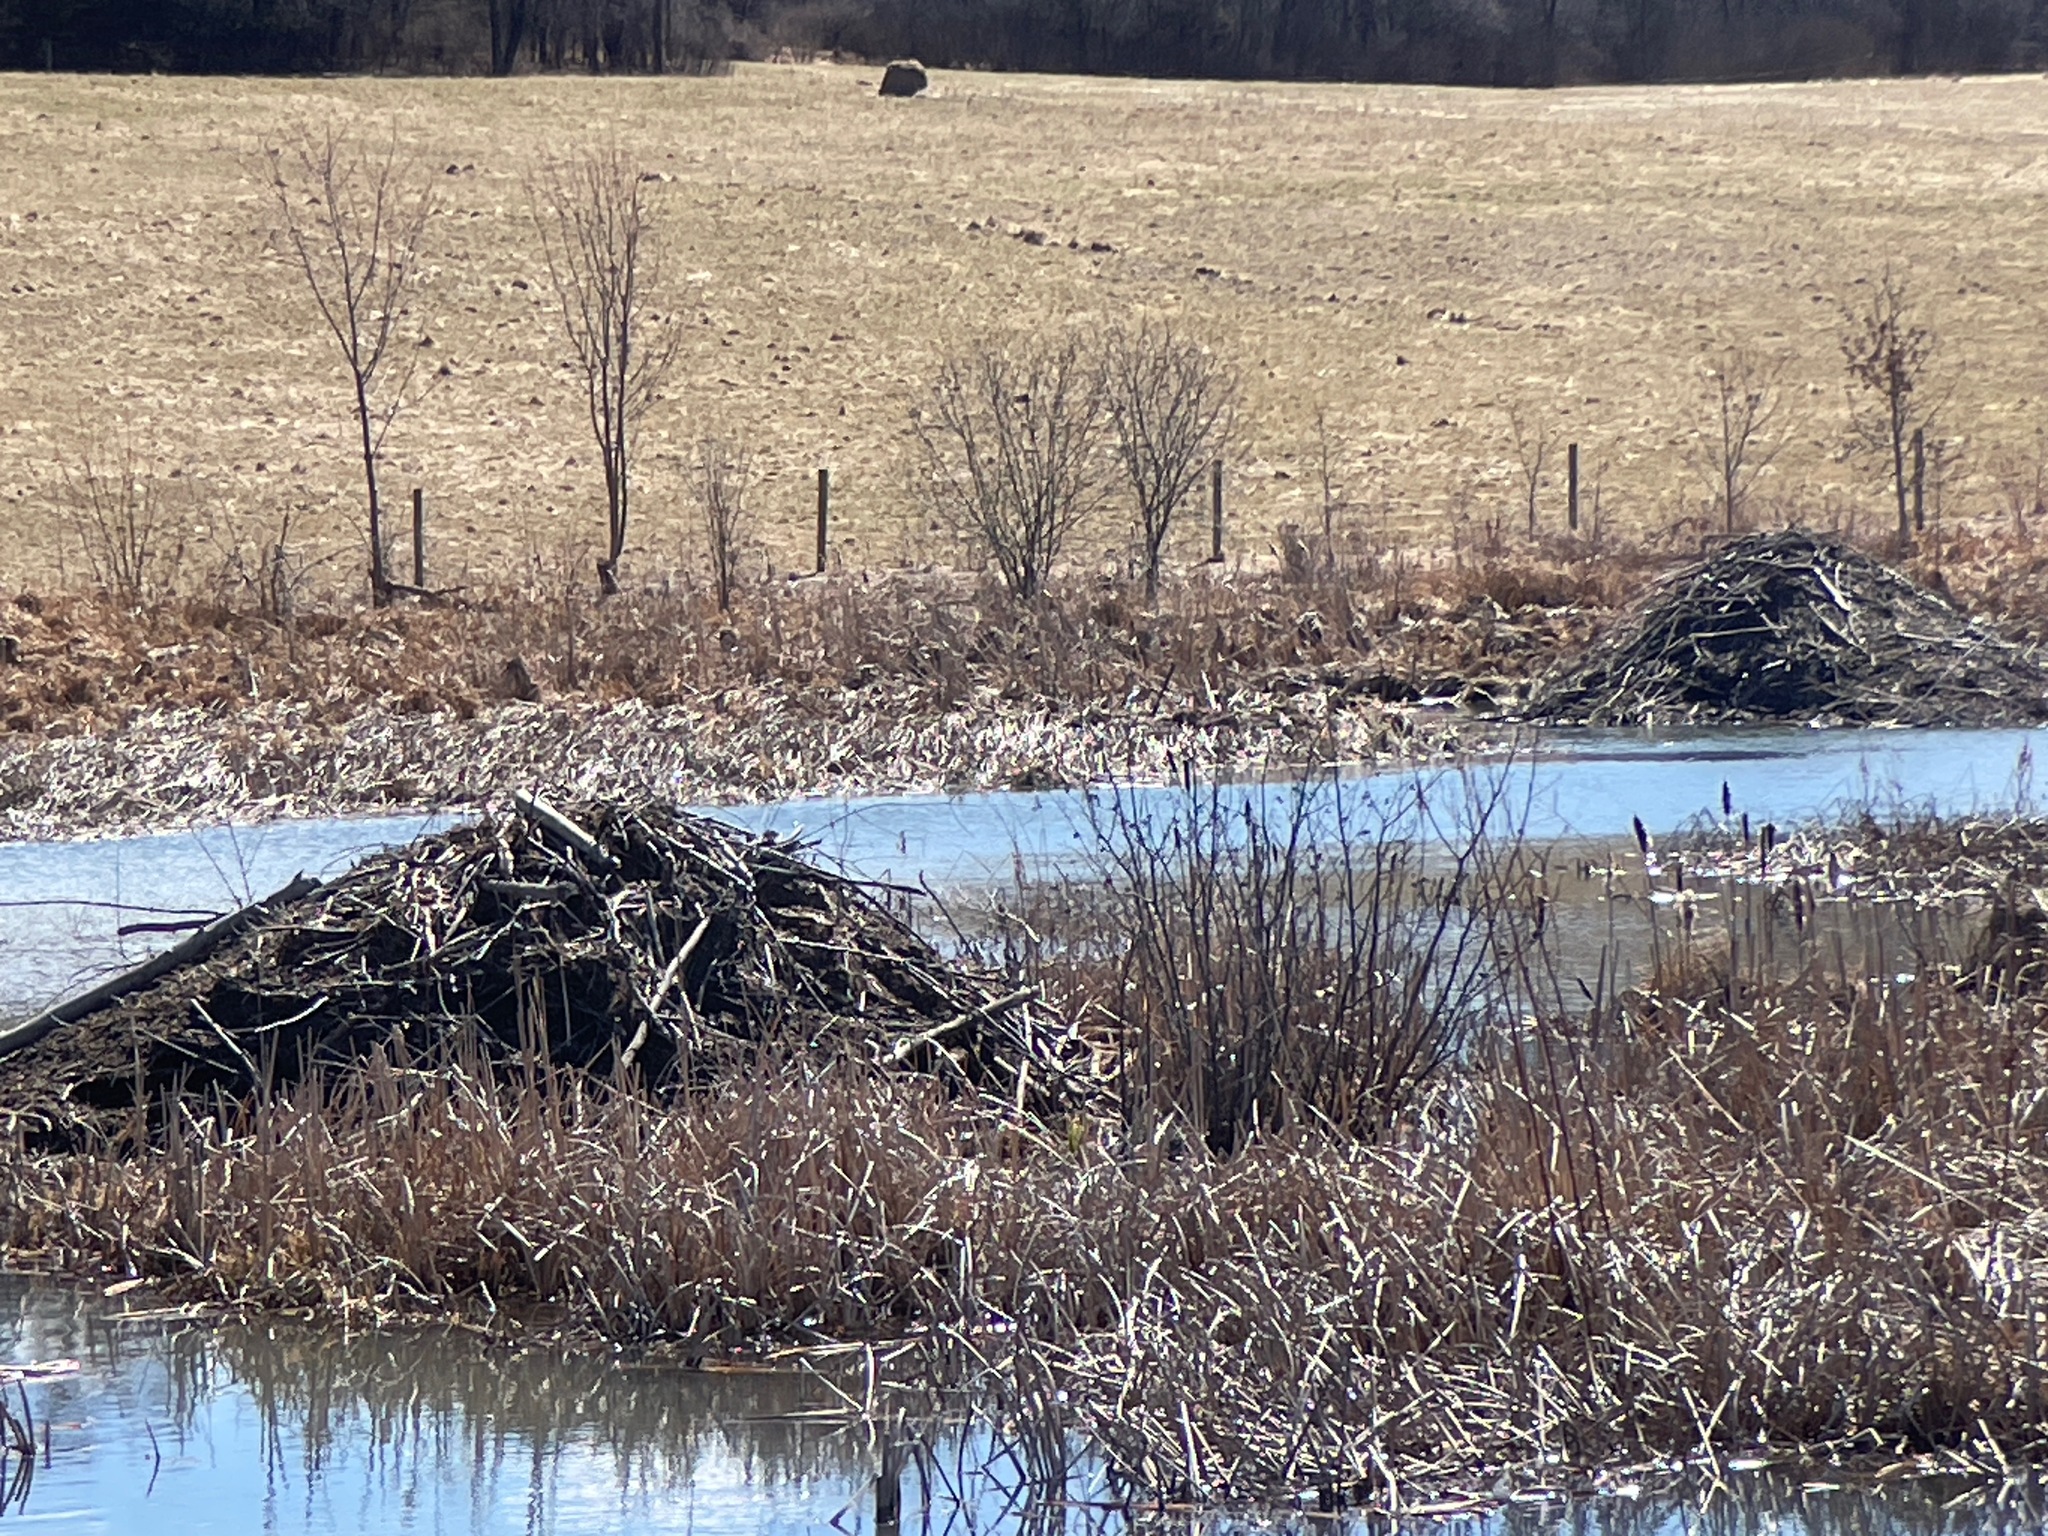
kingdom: Animalia
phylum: Chordata
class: Mammalia
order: Rodentia
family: Castoridae
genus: Castor
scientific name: Castor canadensis
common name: American beaver
